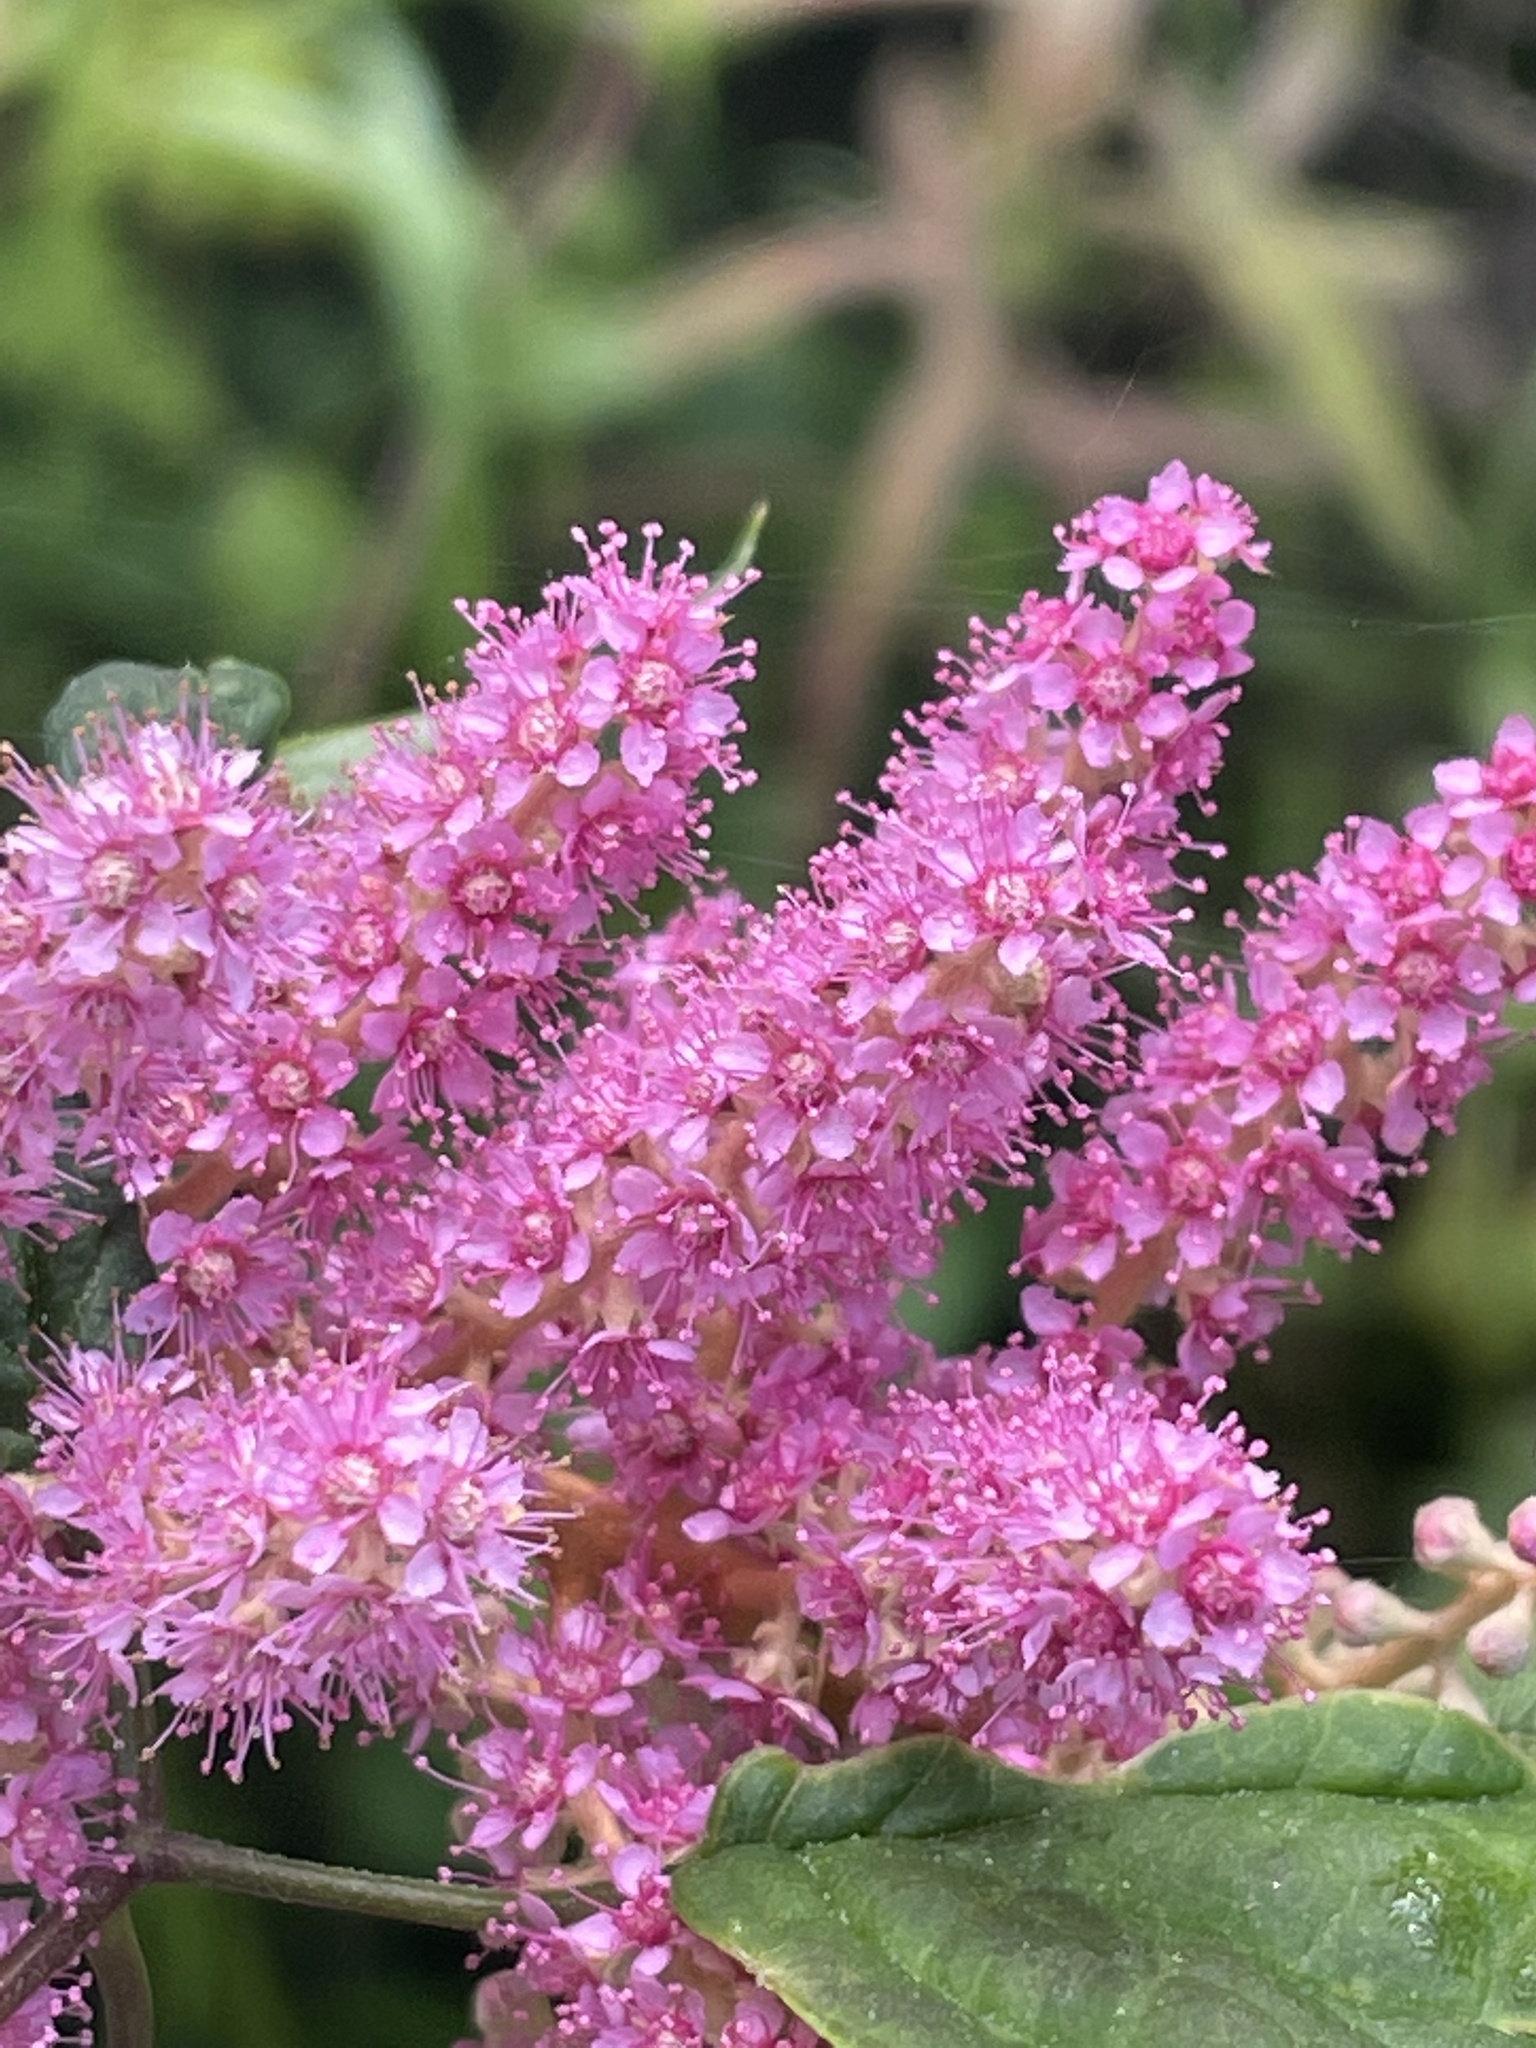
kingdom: Plantae
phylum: Tracheophyta
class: Magnoliopsida
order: Rosales
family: Rosaceae
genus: Spiraea
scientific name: Spiraea tomentosa
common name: Hardhack
